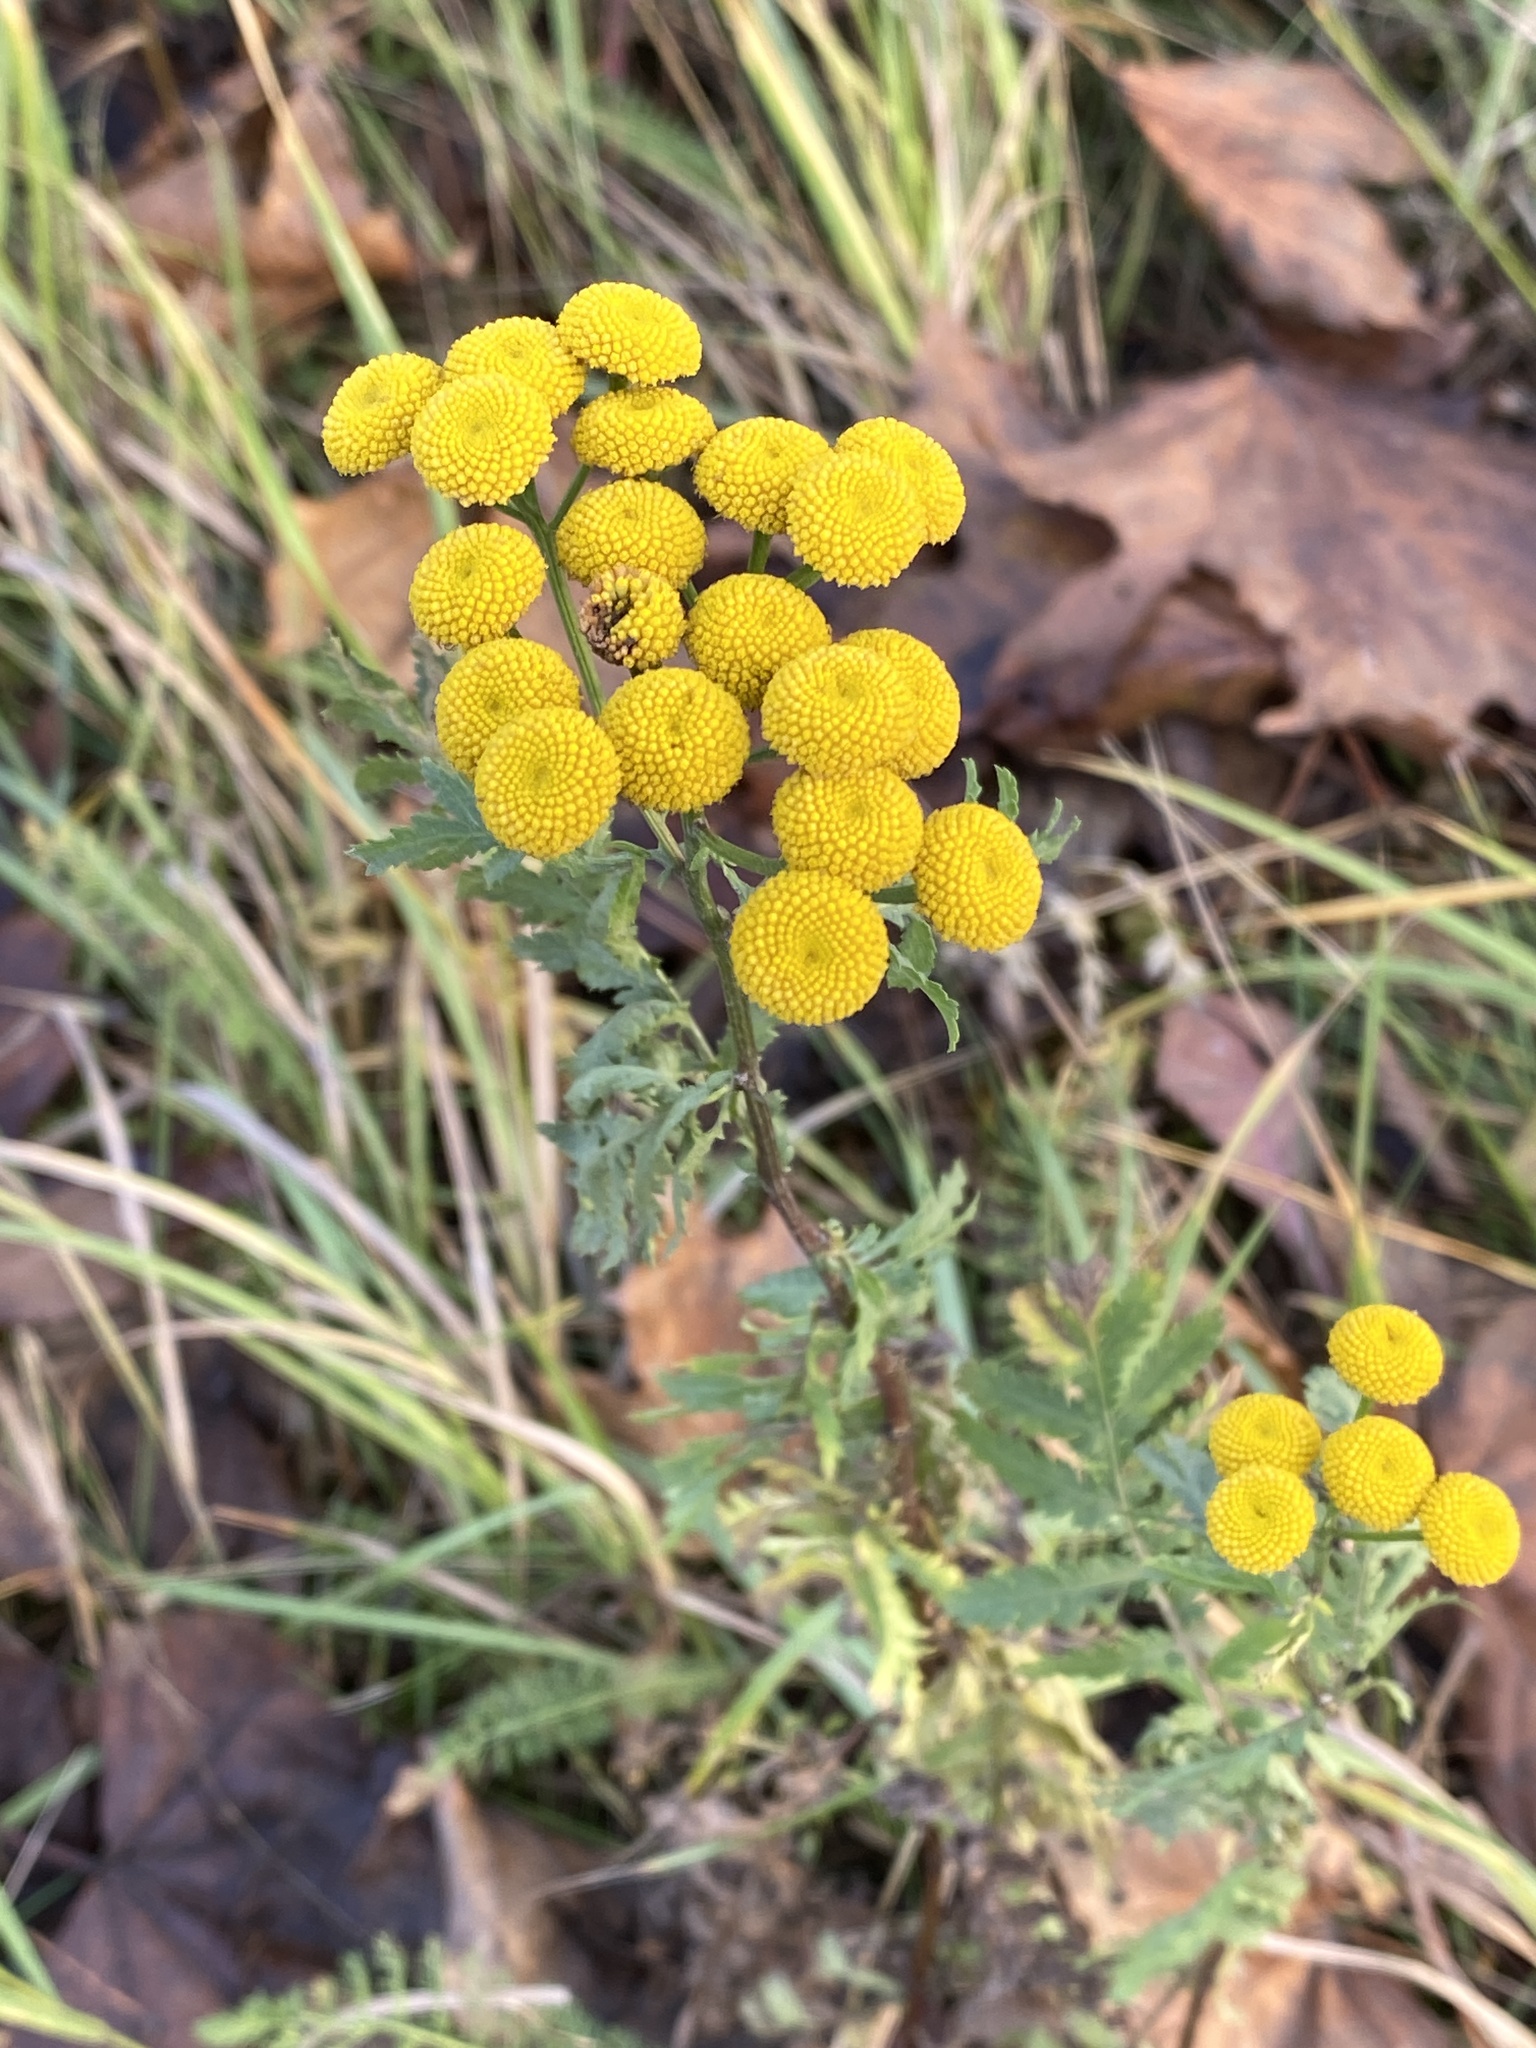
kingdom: Plantae
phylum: Tracheophyta
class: Magnoliopsida
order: Asterales
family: Asteraceae
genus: Tanacetum
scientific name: Tanacetum vulgare
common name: Common tansy
